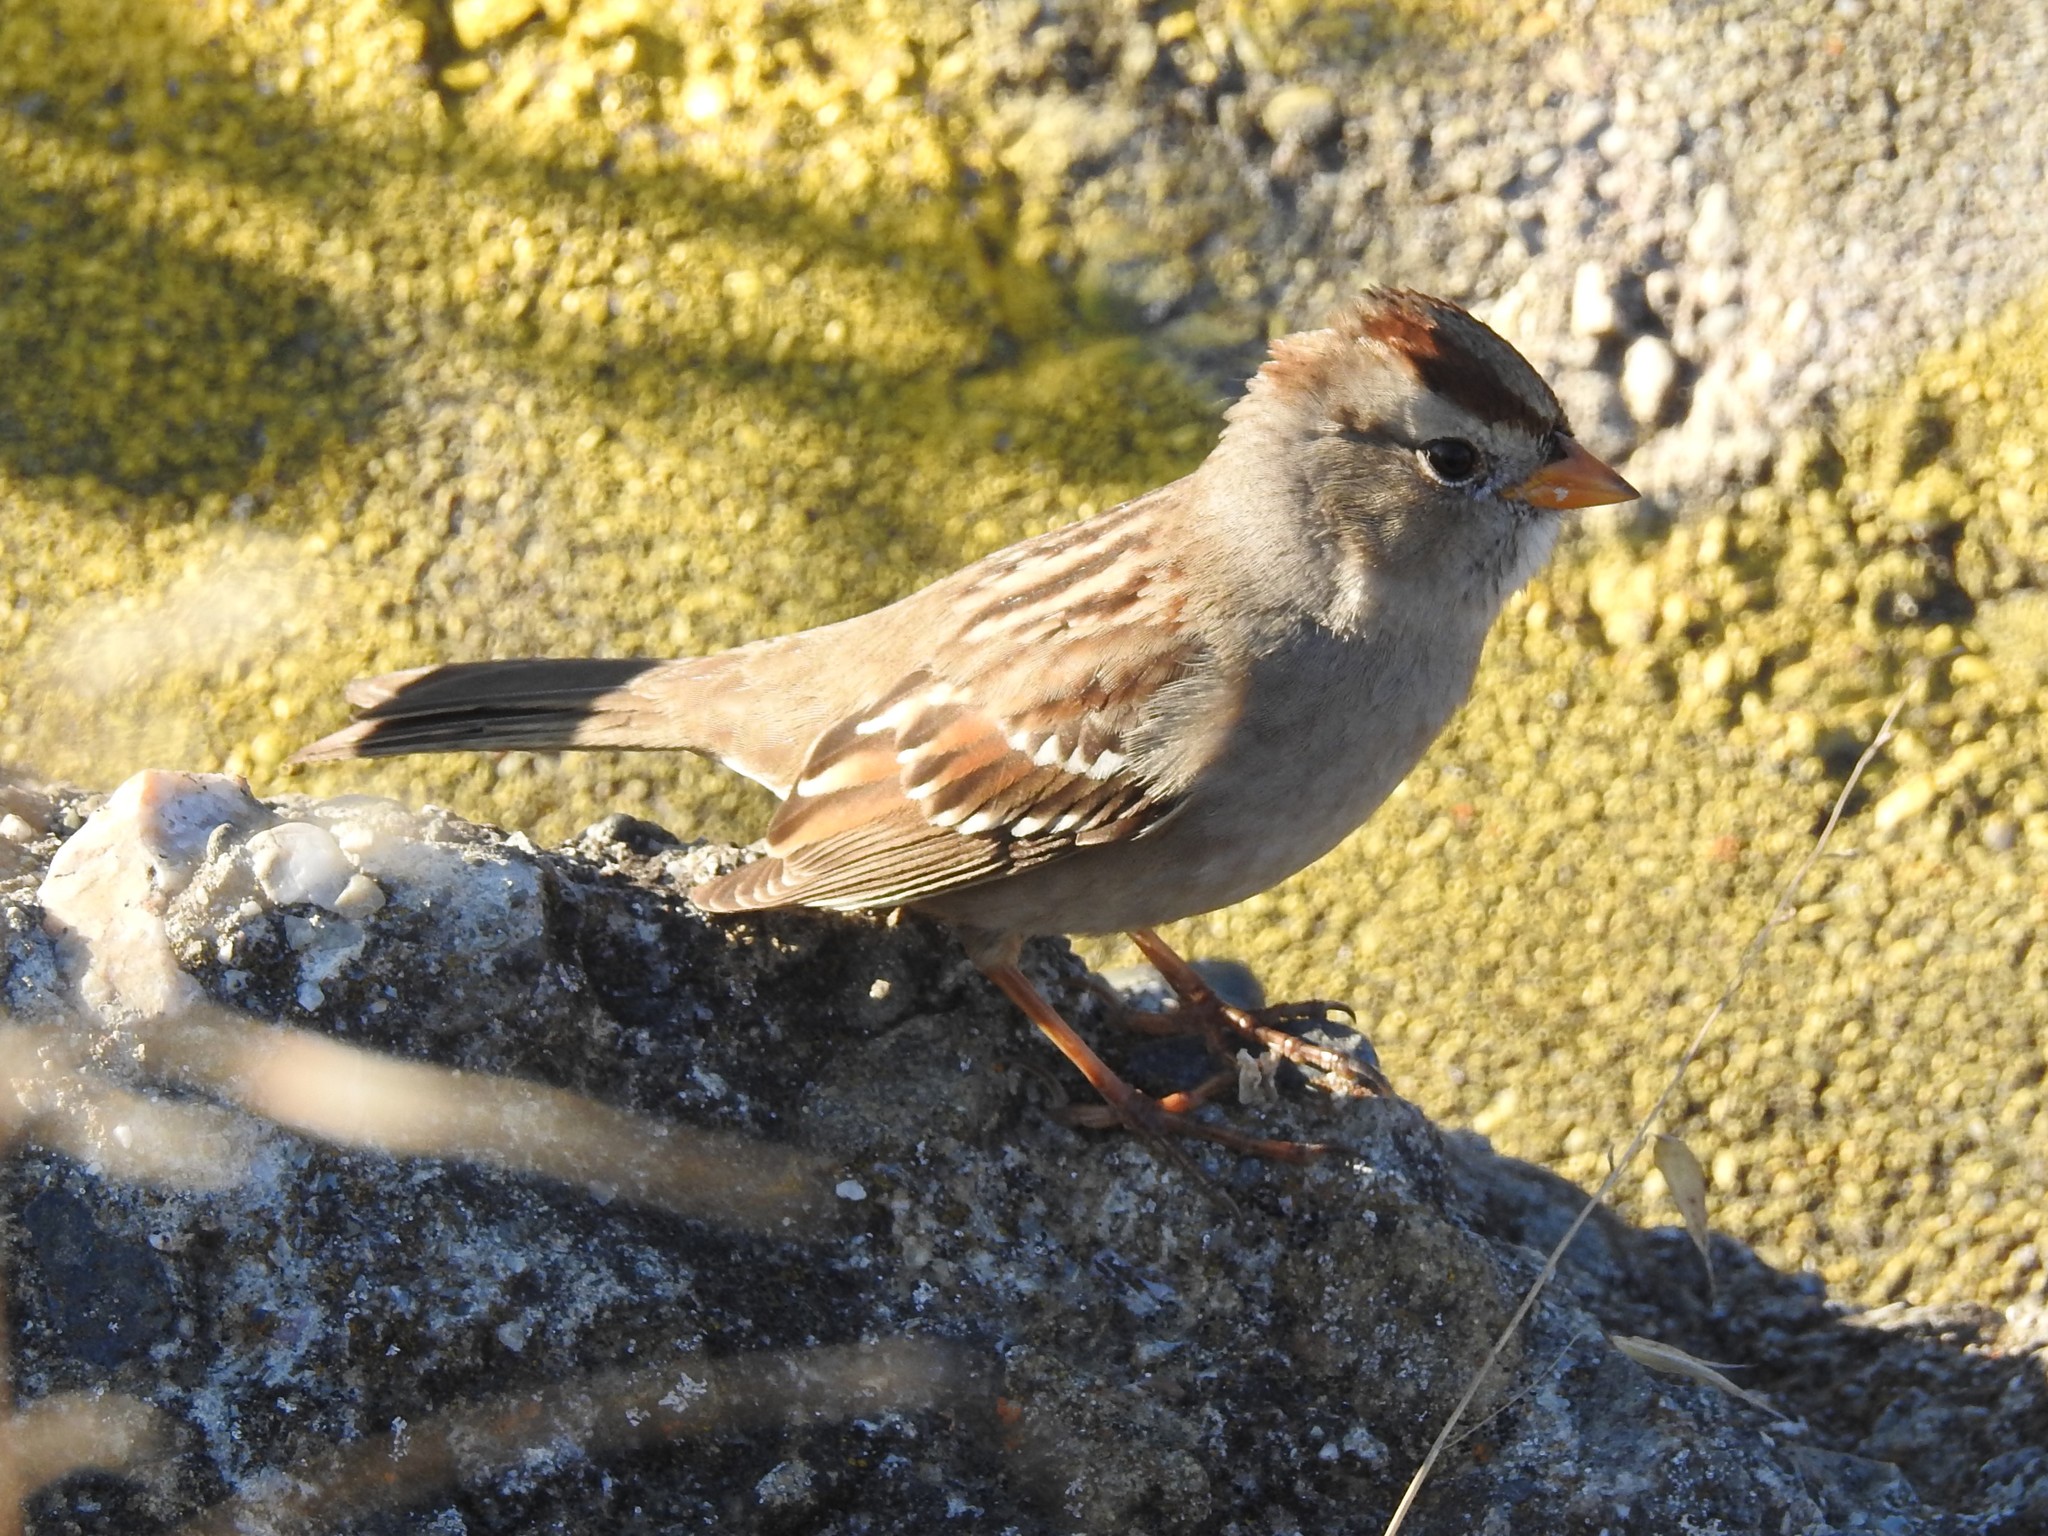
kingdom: Animalia
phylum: Chordata
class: Aves
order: Passeriformes
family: Passerellidae
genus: Zonotrichia
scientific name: Zonotrichia leucophrys
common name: White-crowned sparrow
